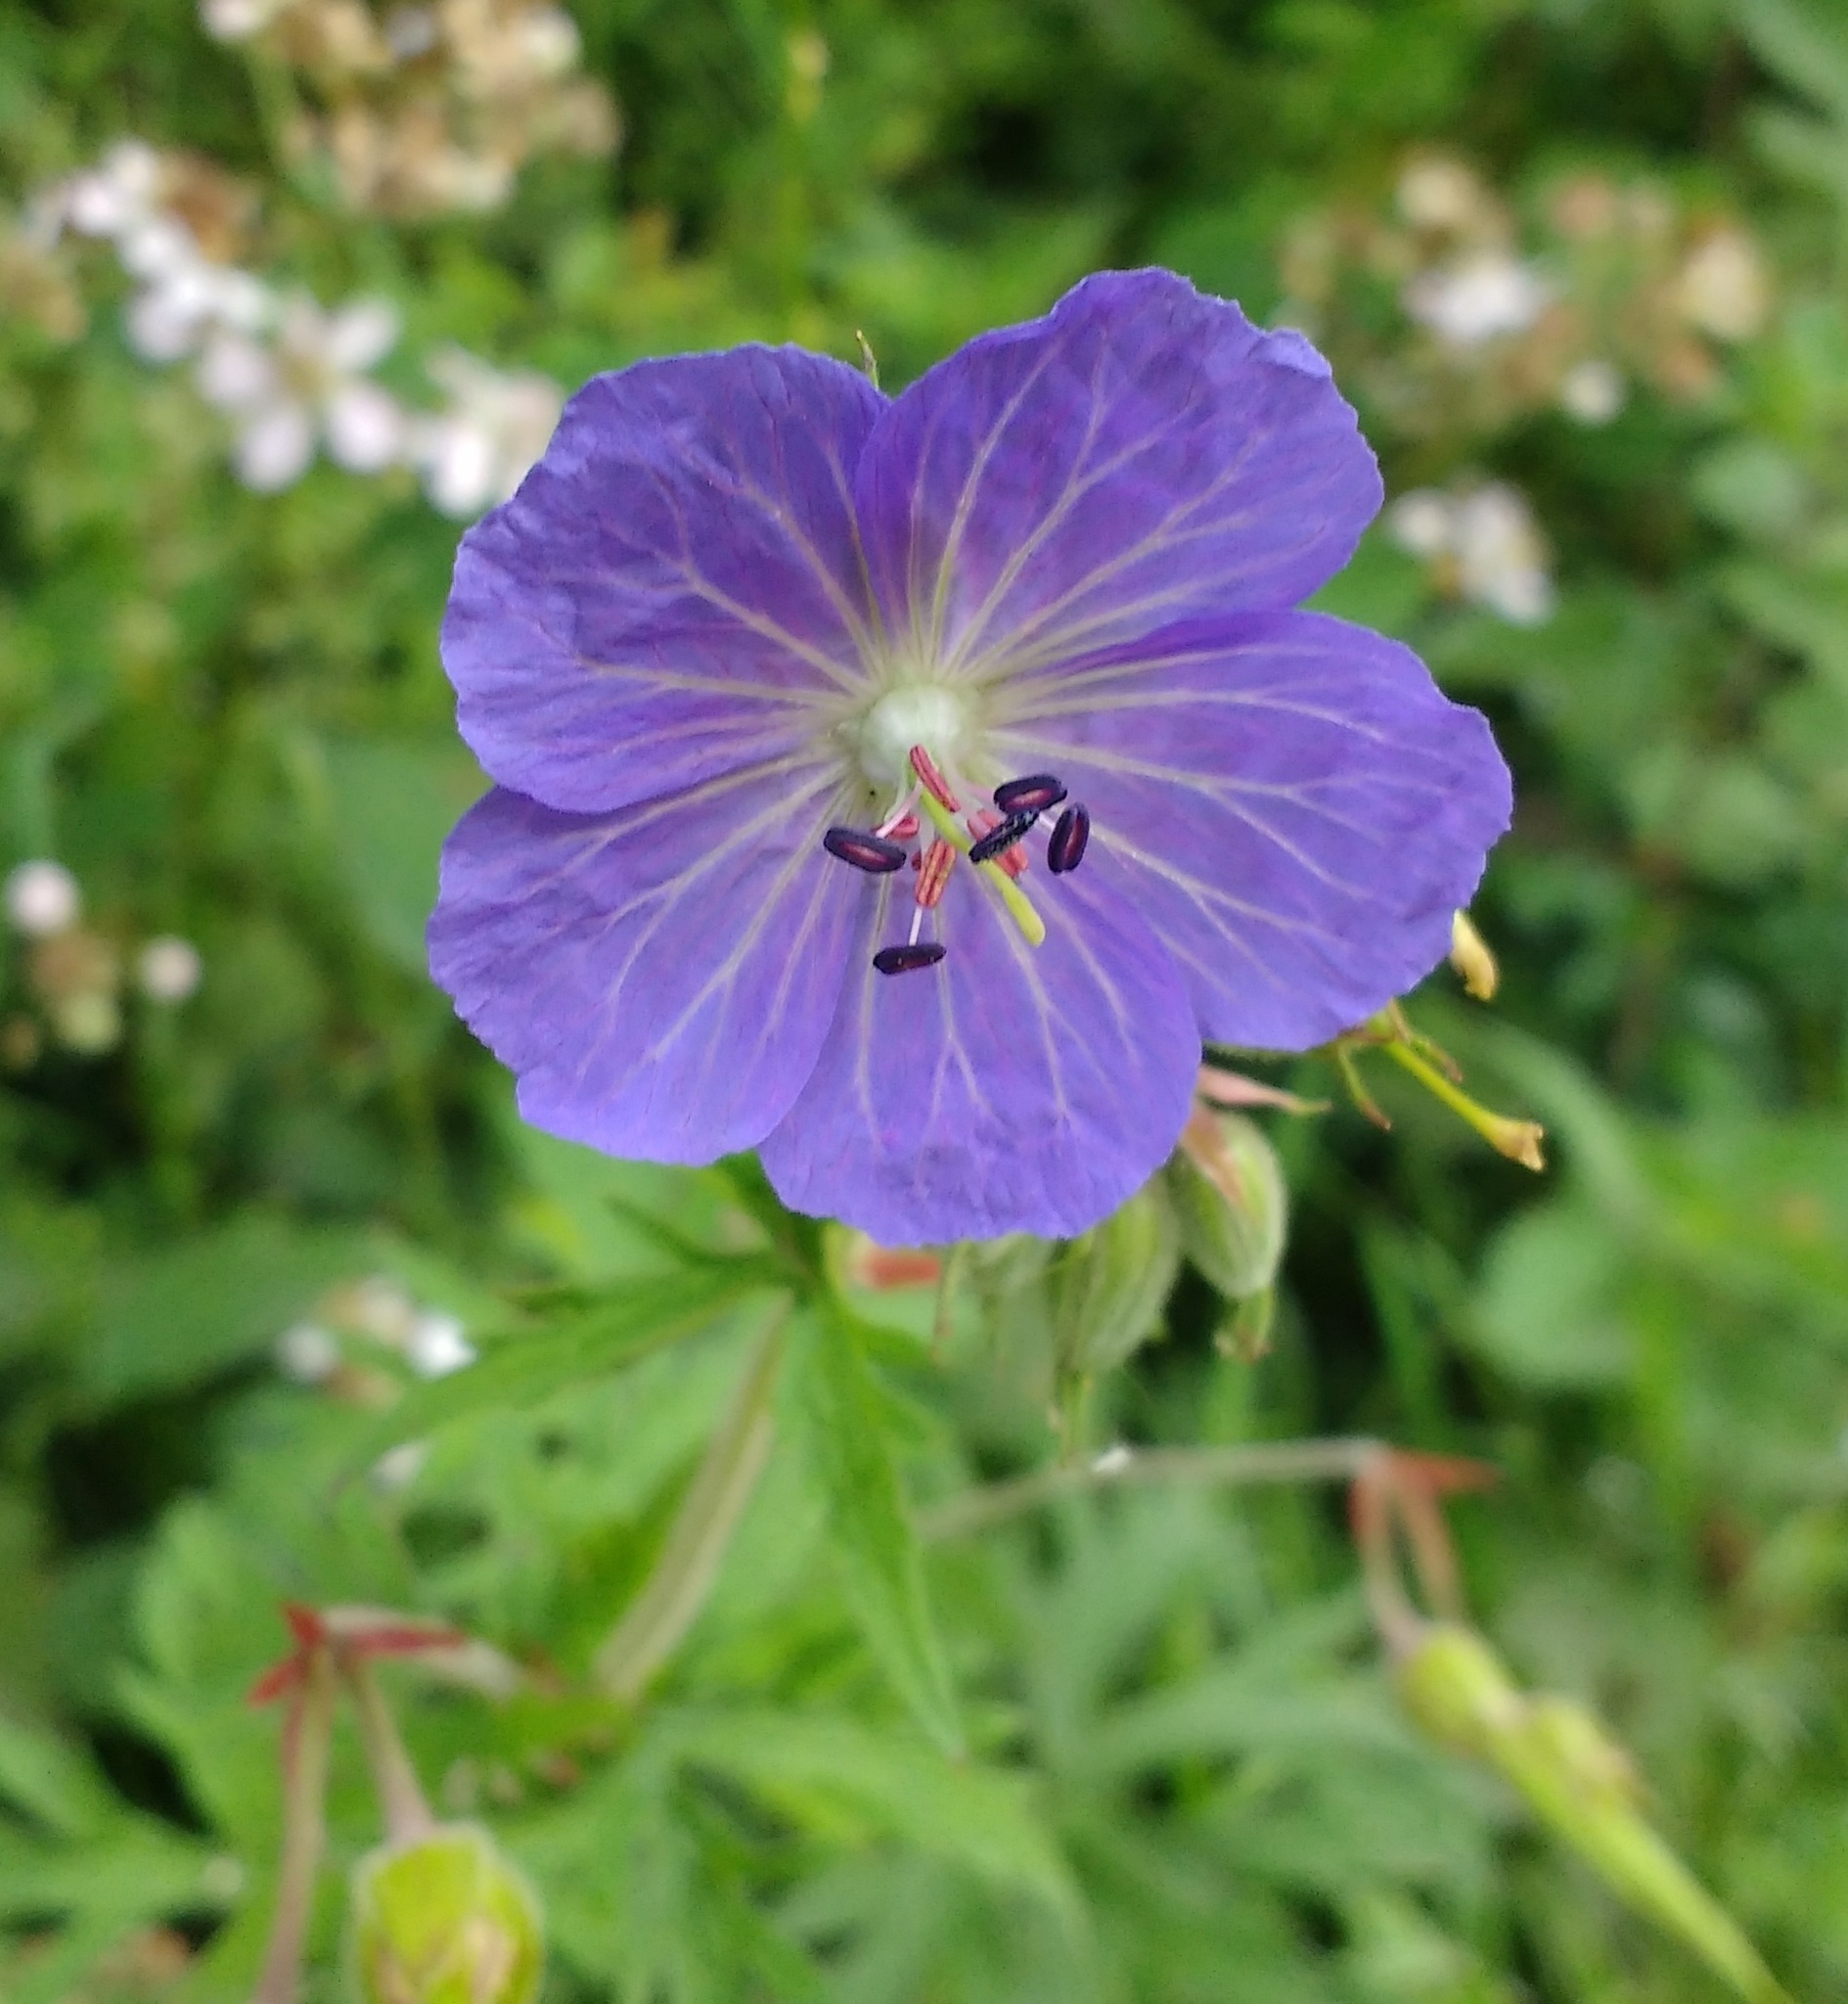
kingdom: Plantae
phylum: Tracheophyta
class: Magnoliopsida
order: Geraniales
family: Geraniaceae
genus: Geranium
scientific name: Geranium pratense
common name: Meadow crane's-bill
